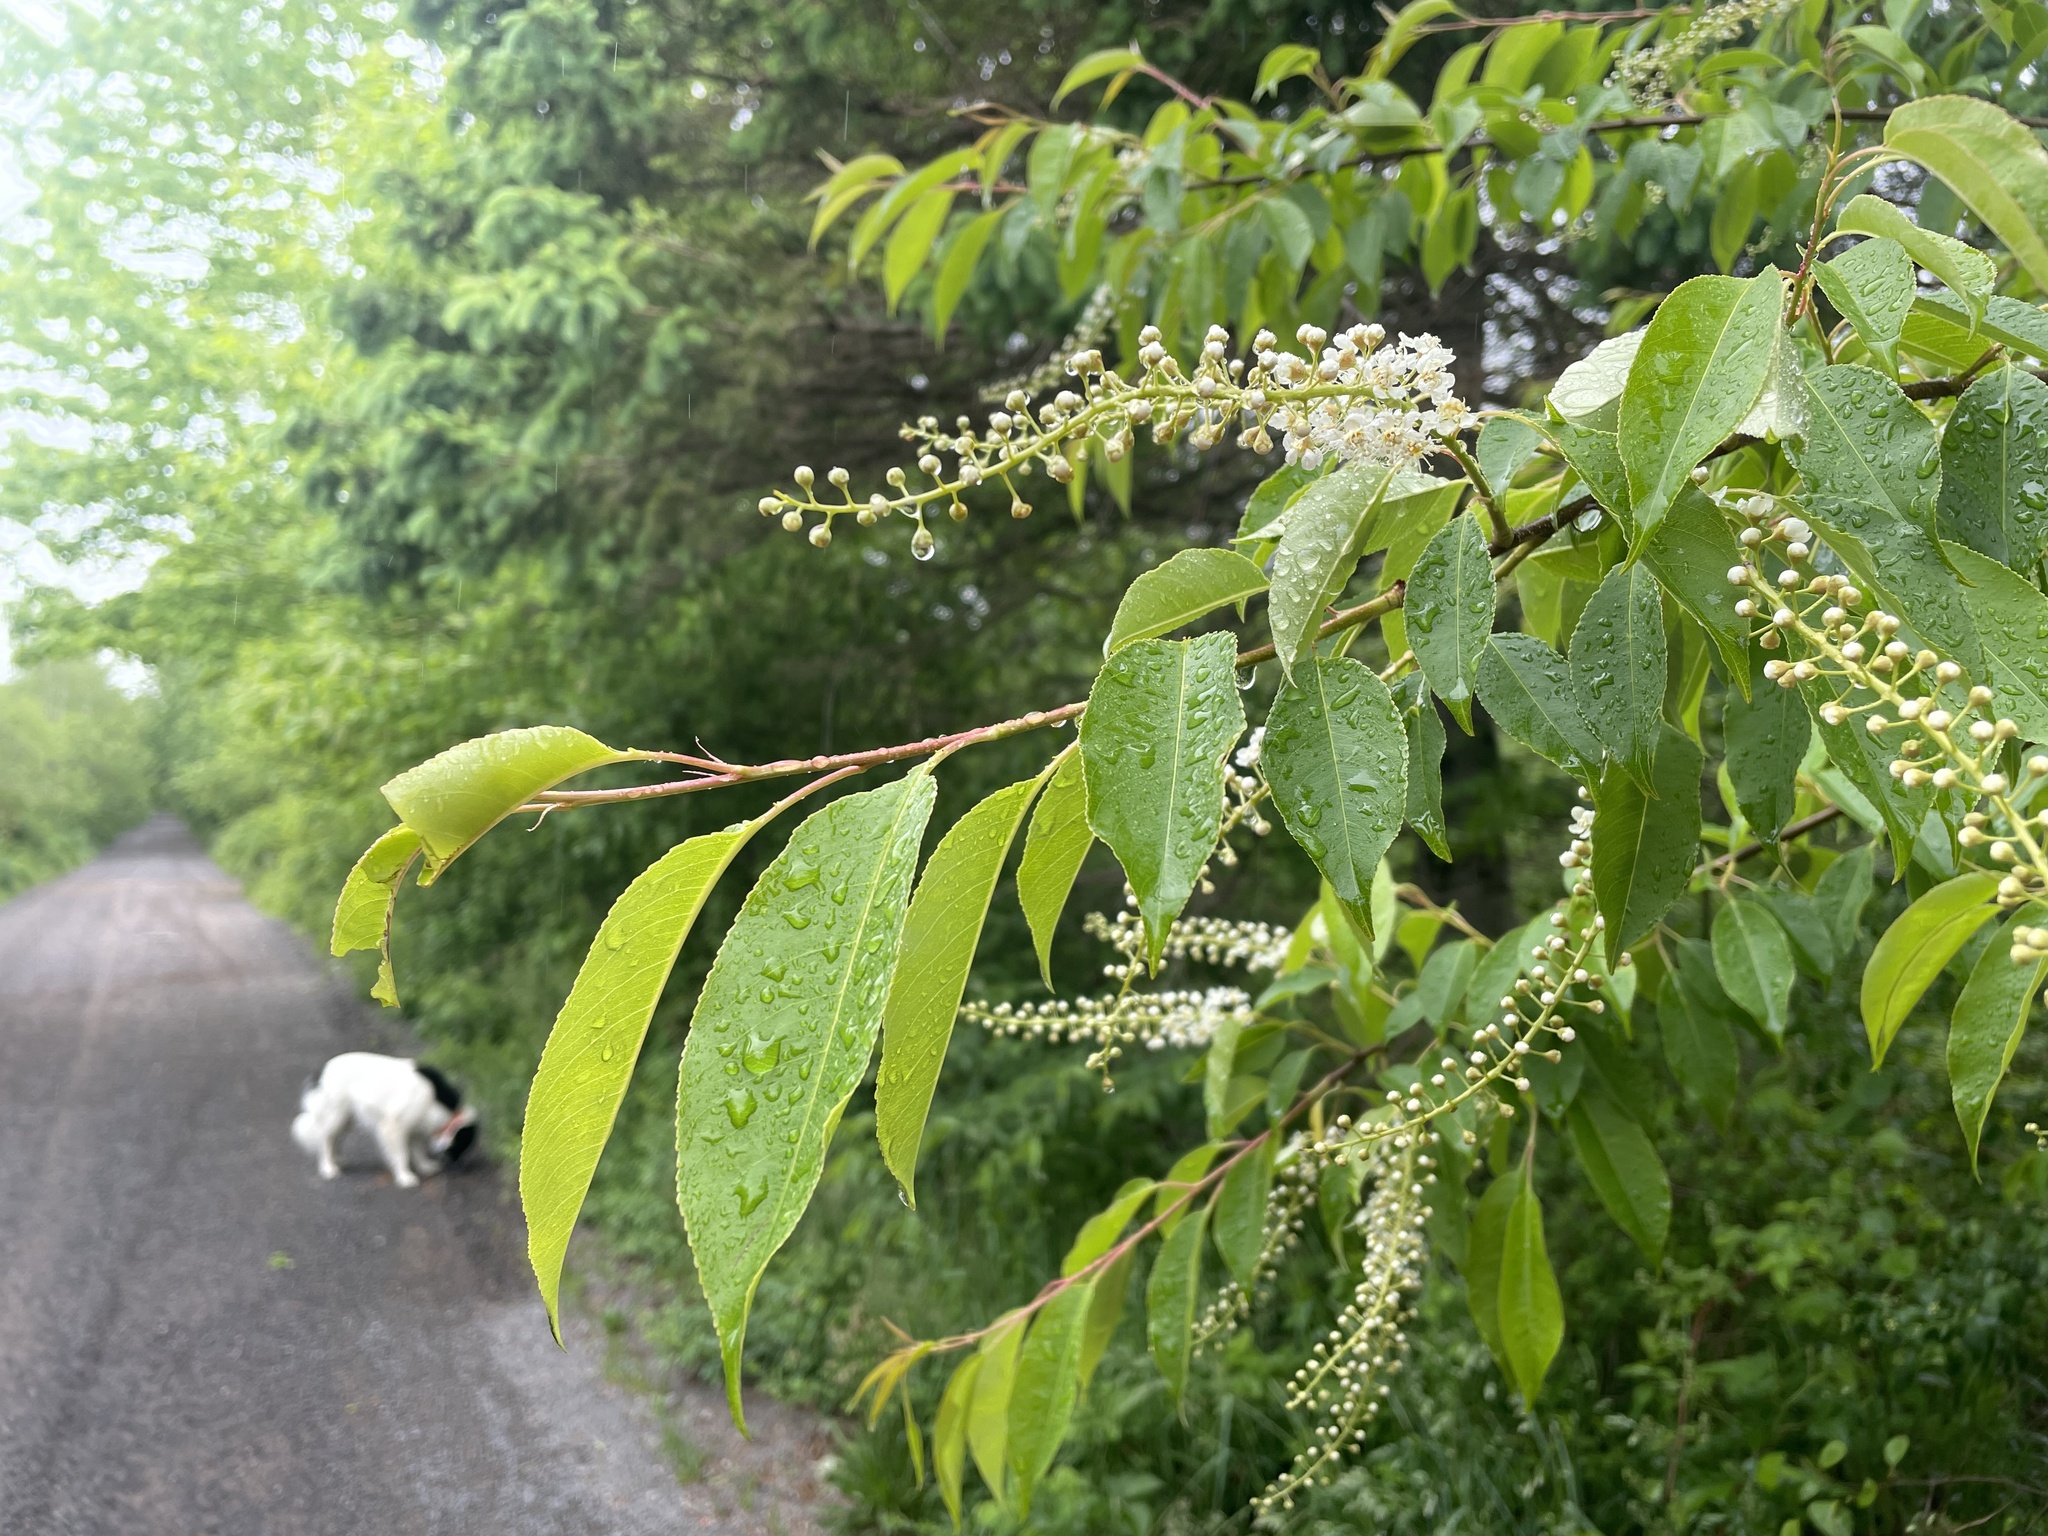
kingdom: Plantae
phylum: Tracheophyta
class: Magnoliopsida
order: Rosales
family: Rosaceae
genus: Prunus
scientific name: Prunus serotina
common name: Black cherry
